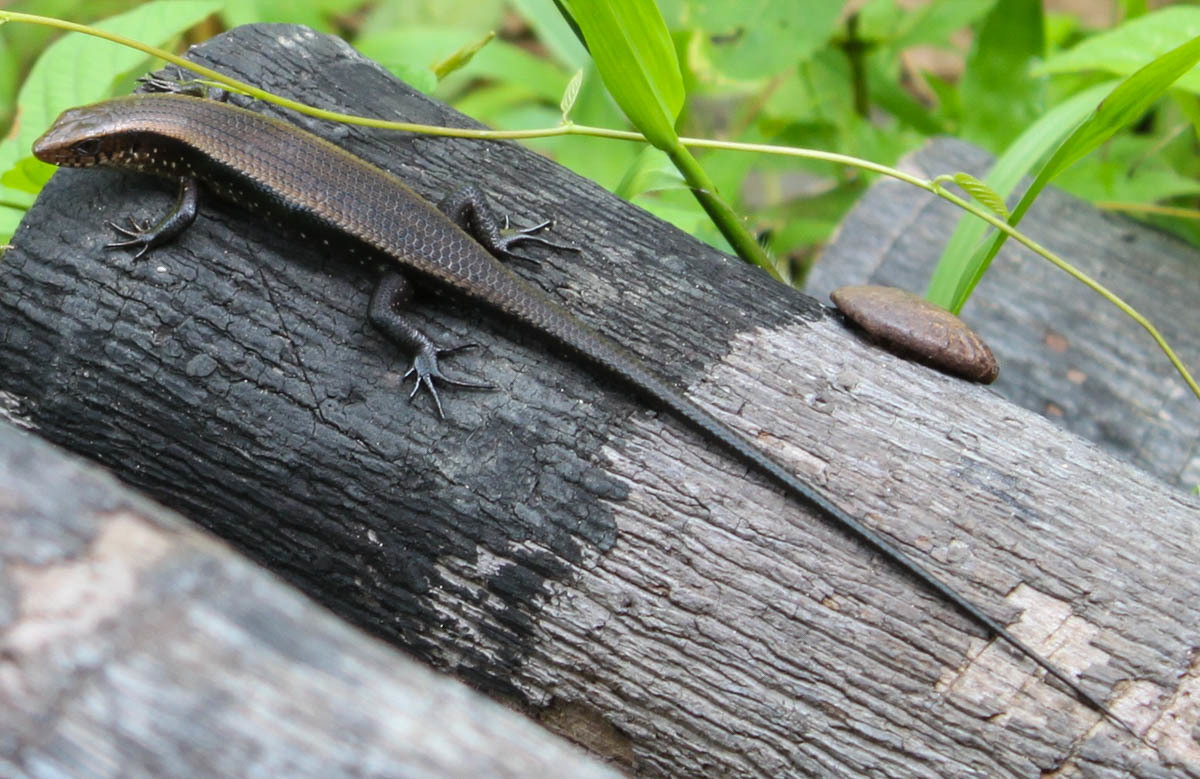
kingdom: Animalia
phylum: Chordata
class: Squamata
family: Scincidae
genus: Eutropis
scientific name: Eutropis multifasciata
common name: Common mabuya
